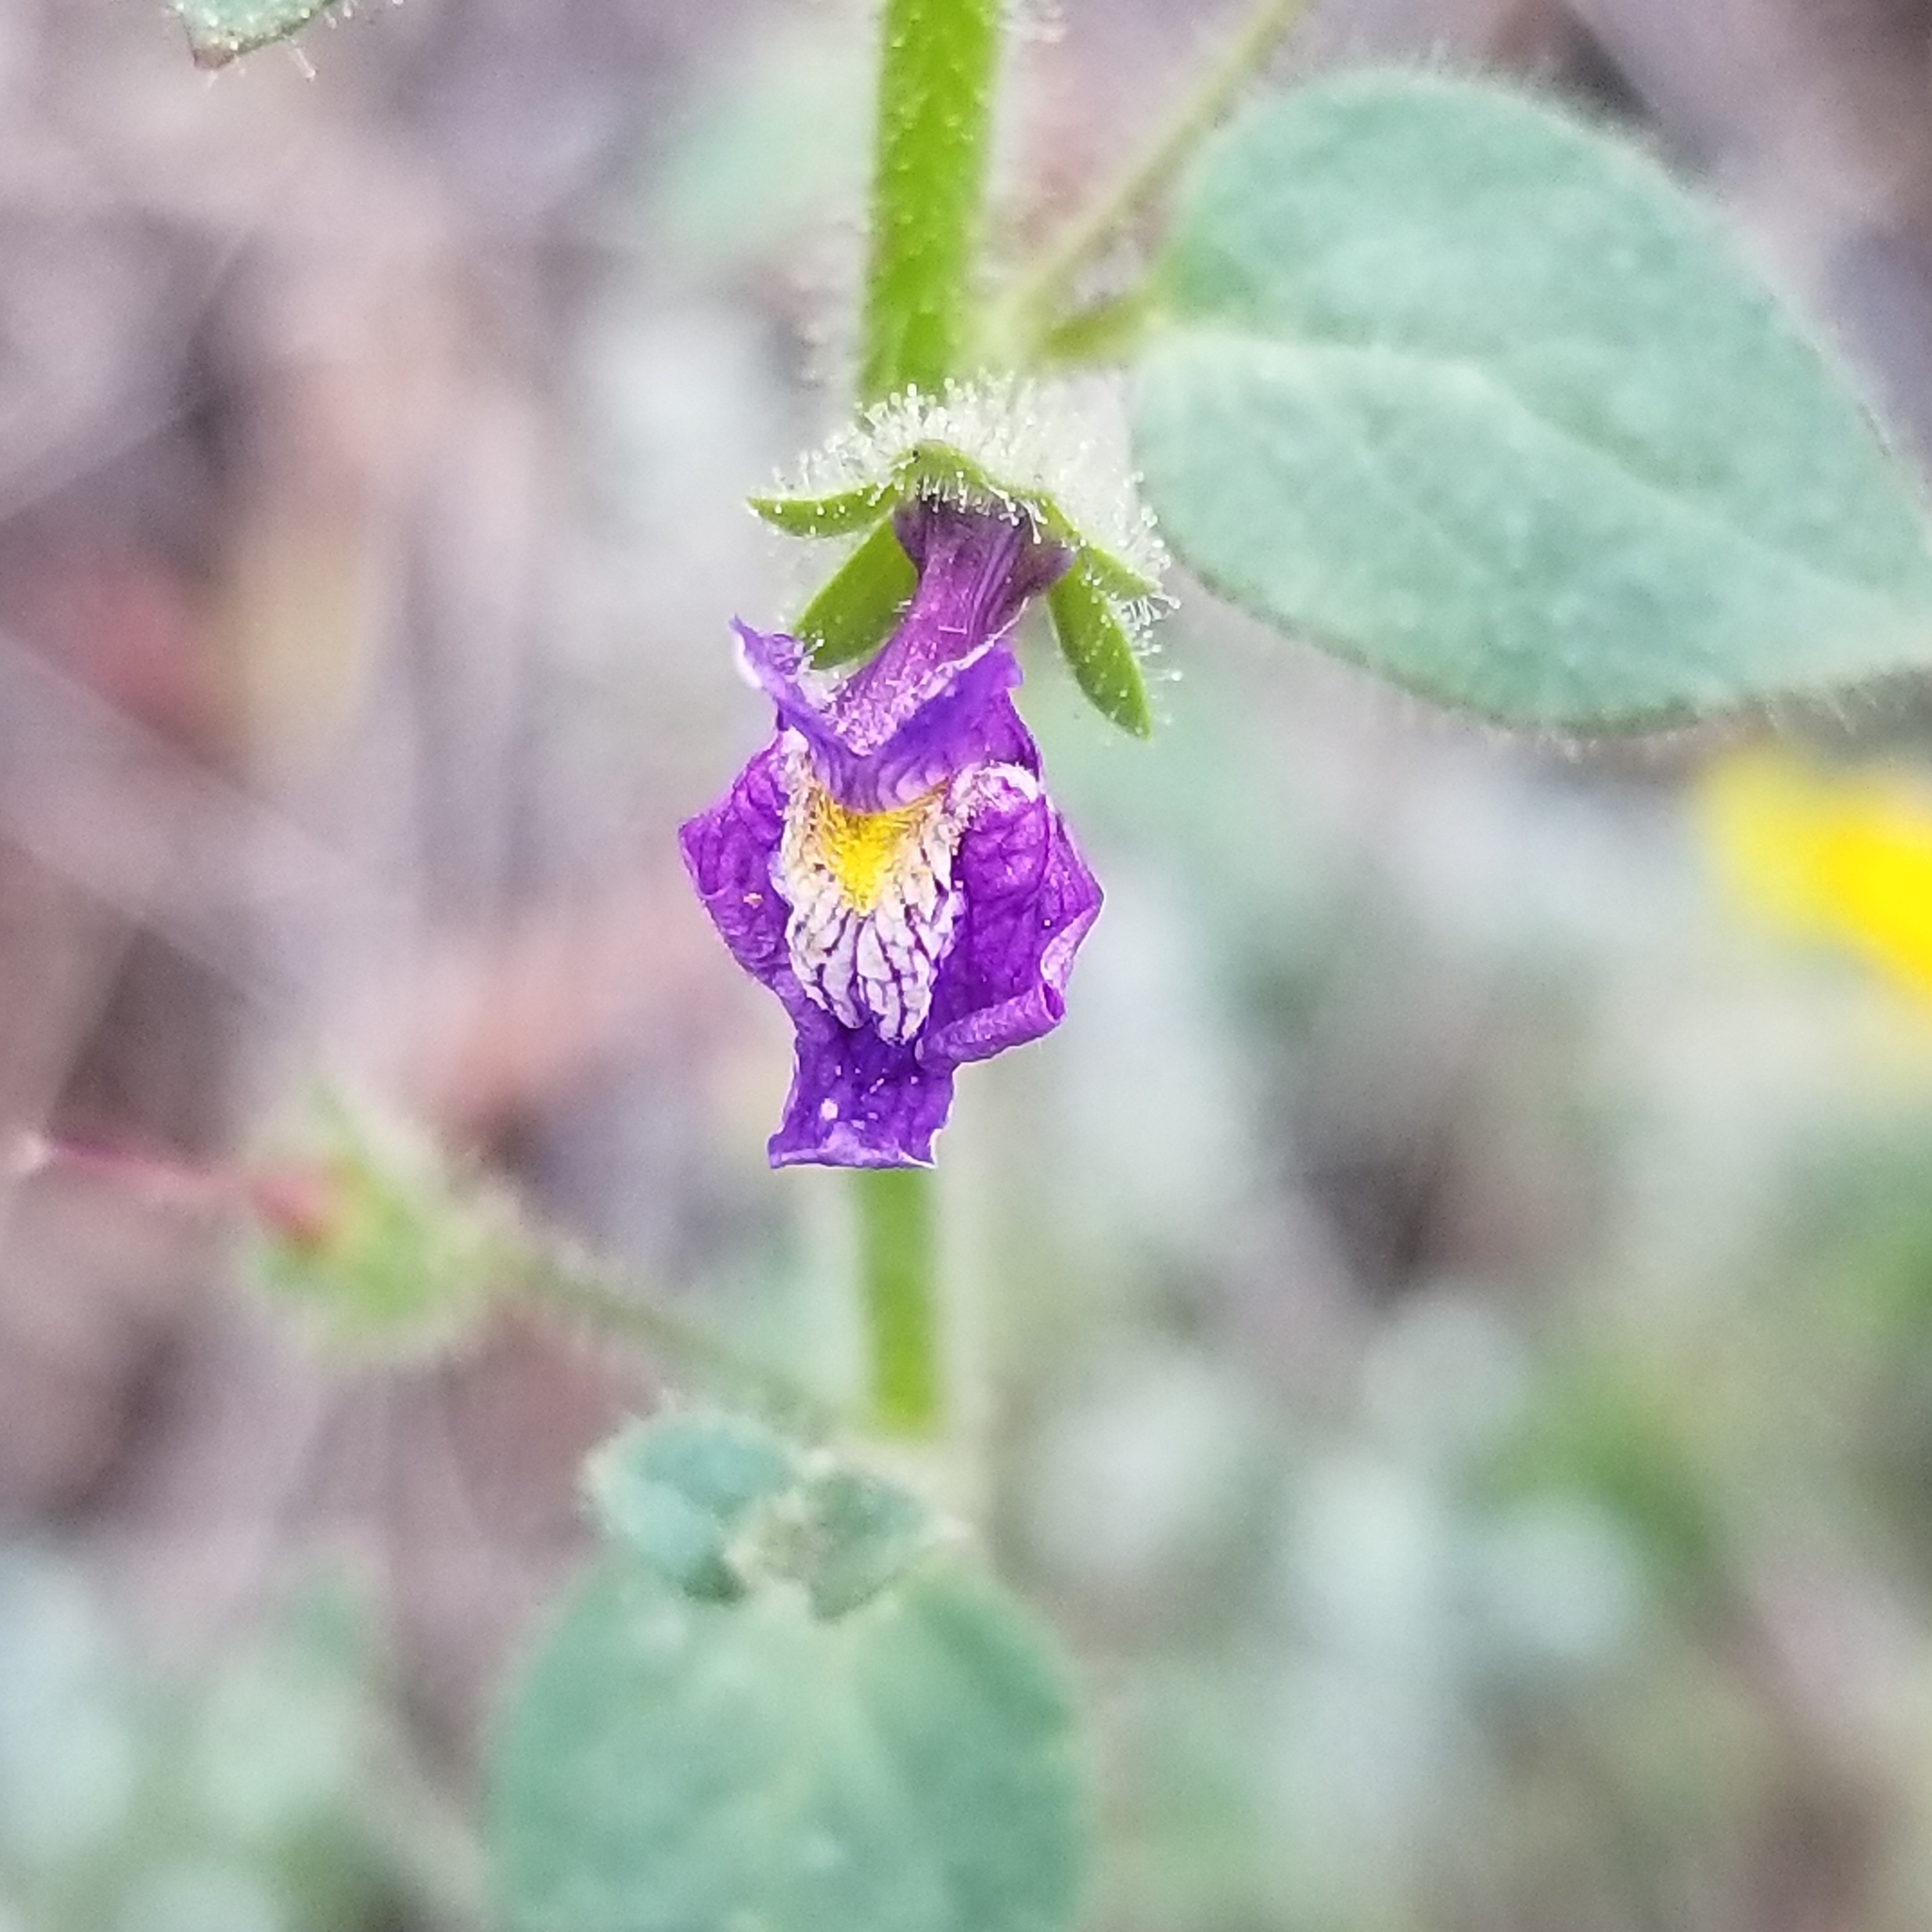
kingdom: Plantae
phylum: Tracheophyta
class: Magnoliopsida
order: Lamiales
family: Plantaginaceae
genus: Sairocarpus
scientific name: Sairocarpus nuttallianus
